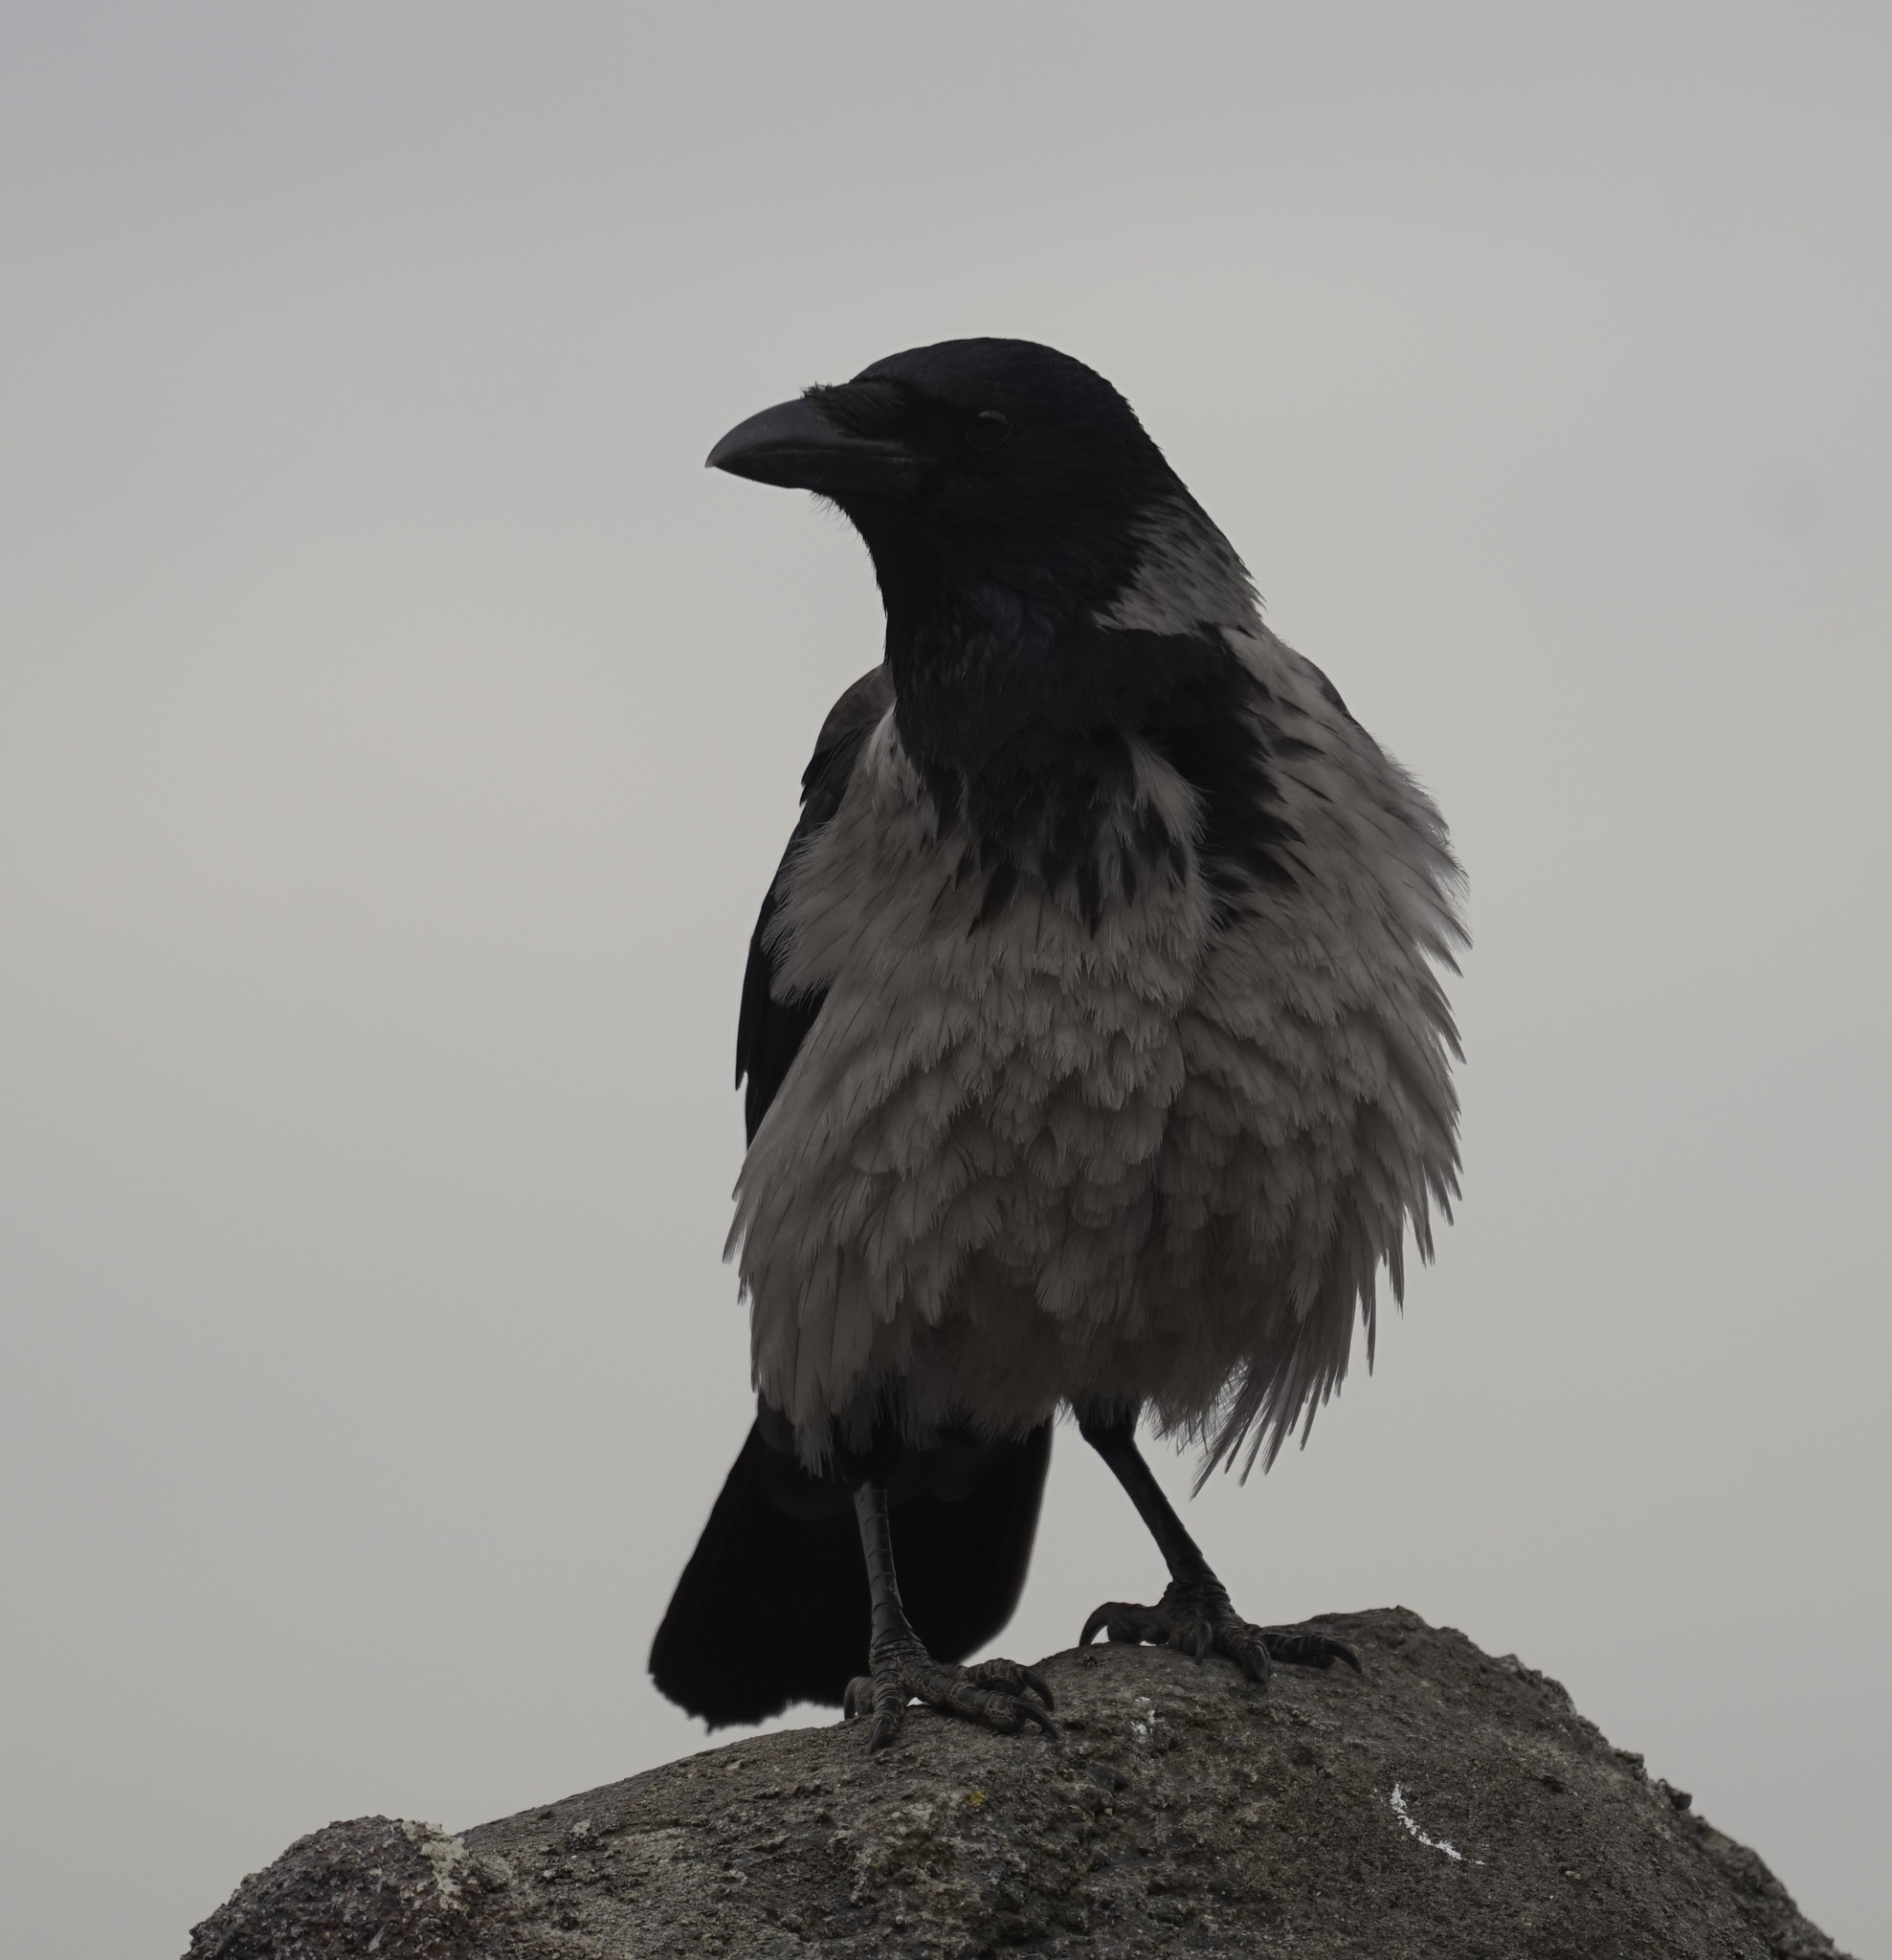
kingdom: Animalia
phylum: Chordata
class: Aves
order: Passeriformes
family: Corvidae
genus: Corvus
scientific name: Corvus cornix
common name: Hooded crow
